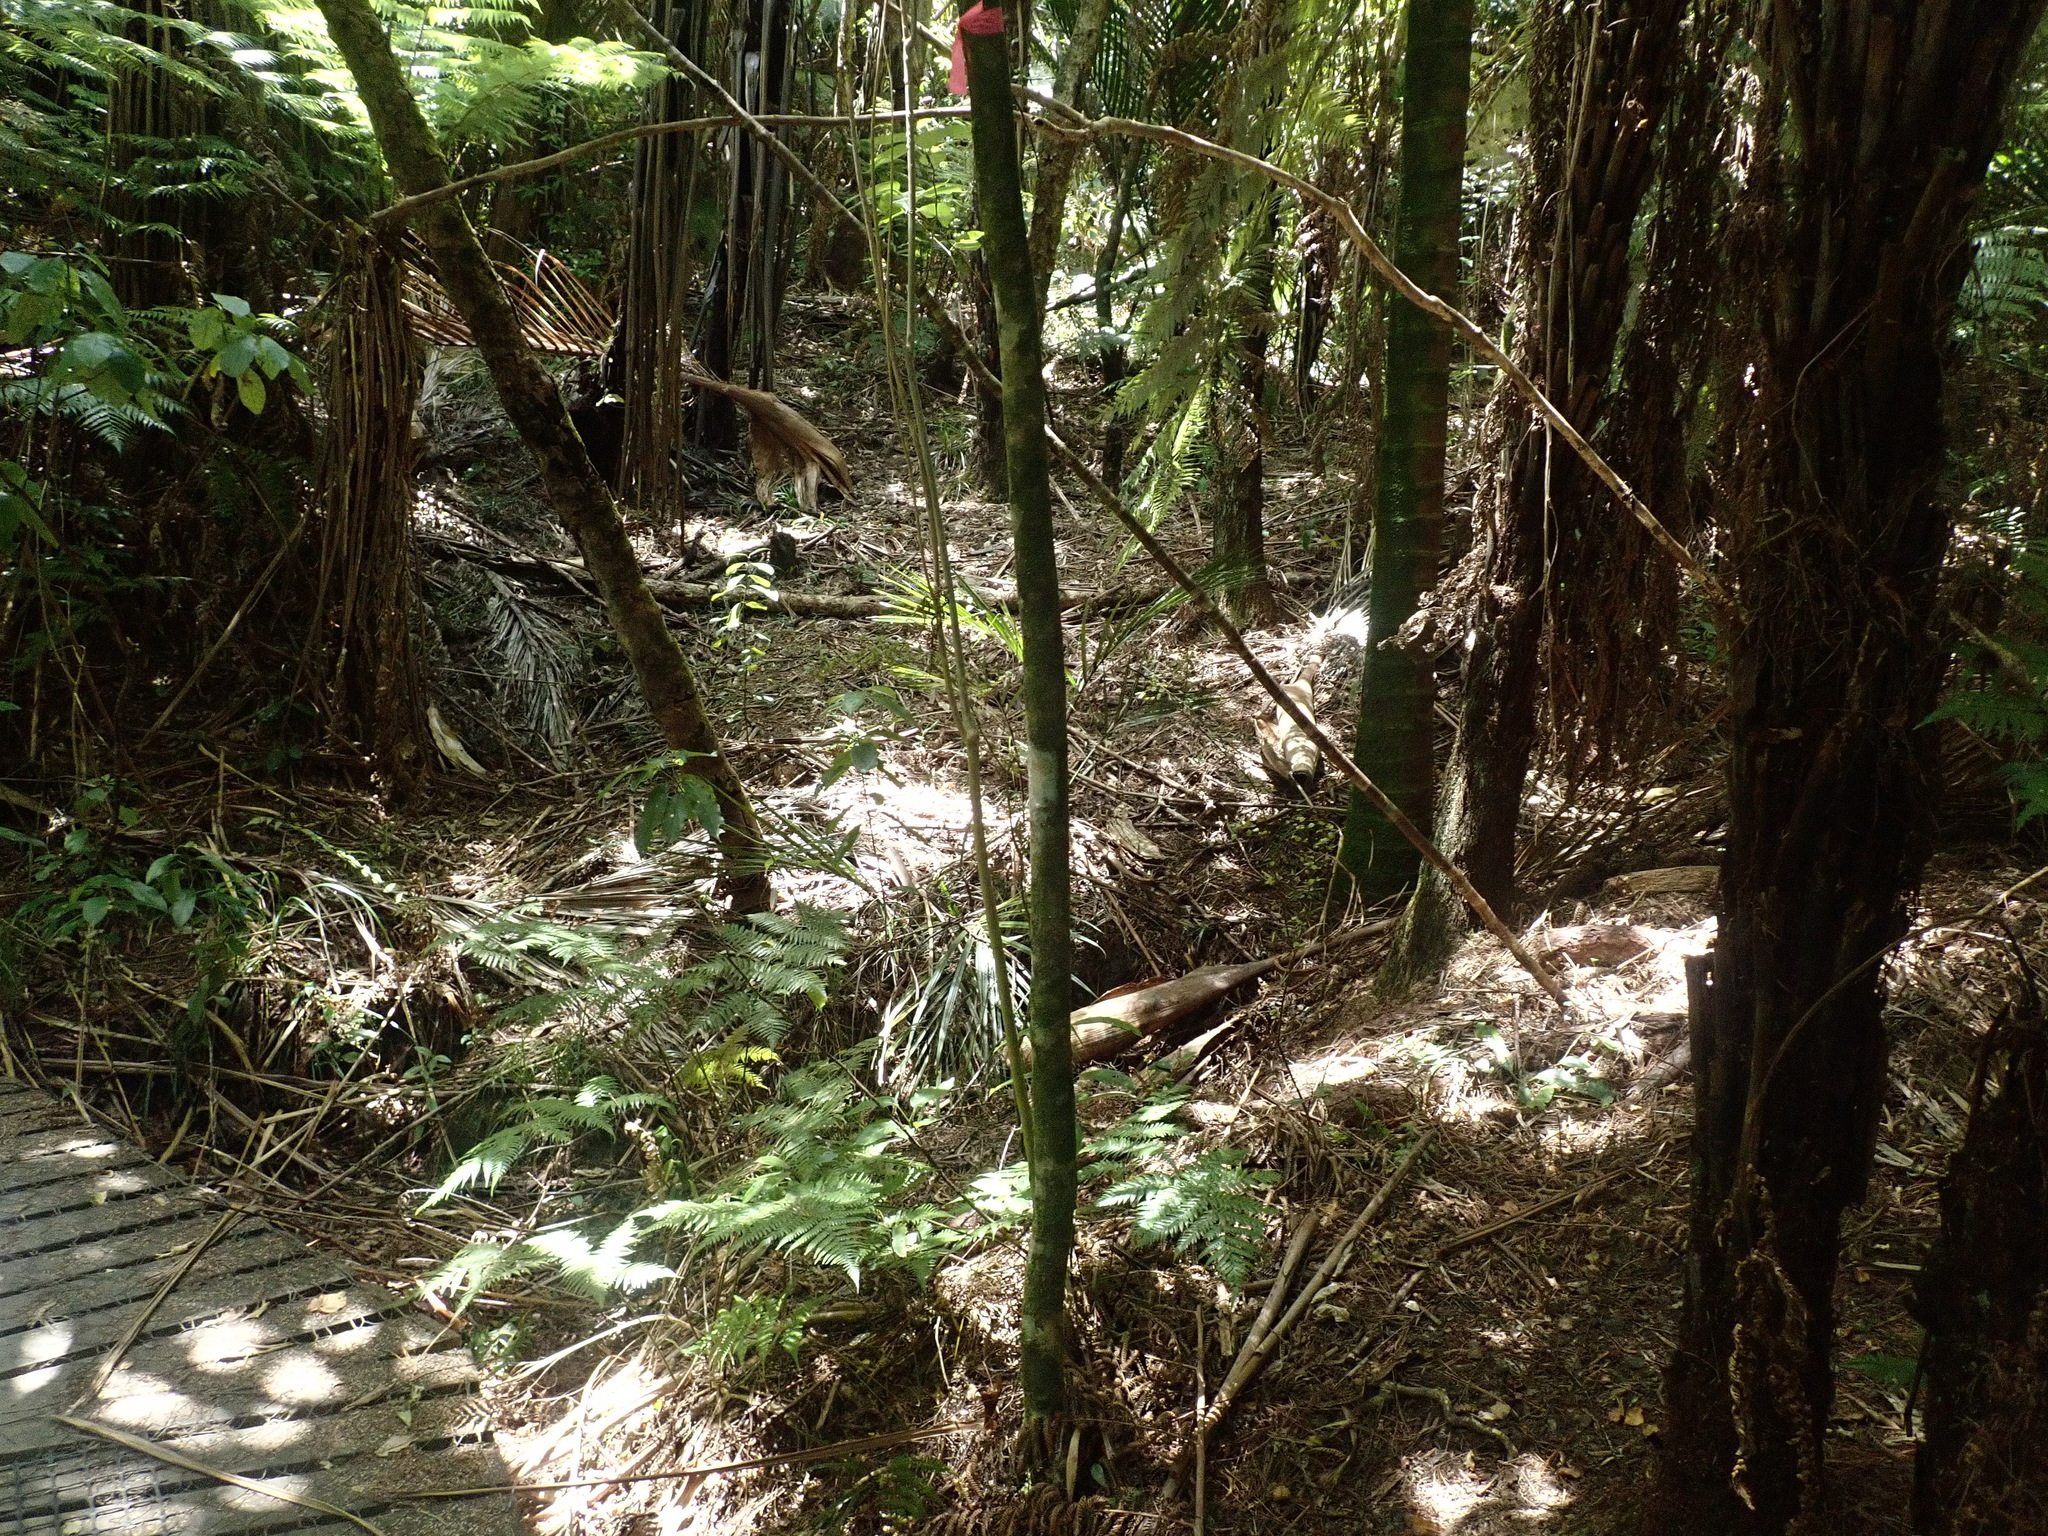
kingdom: Plantae
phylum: Tracheophyta
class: Liliopsida
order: Arecales
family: Arecaceae
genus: Rhopalostylis
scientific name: Rhopalostylis sapida
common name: Feather-duster palm
